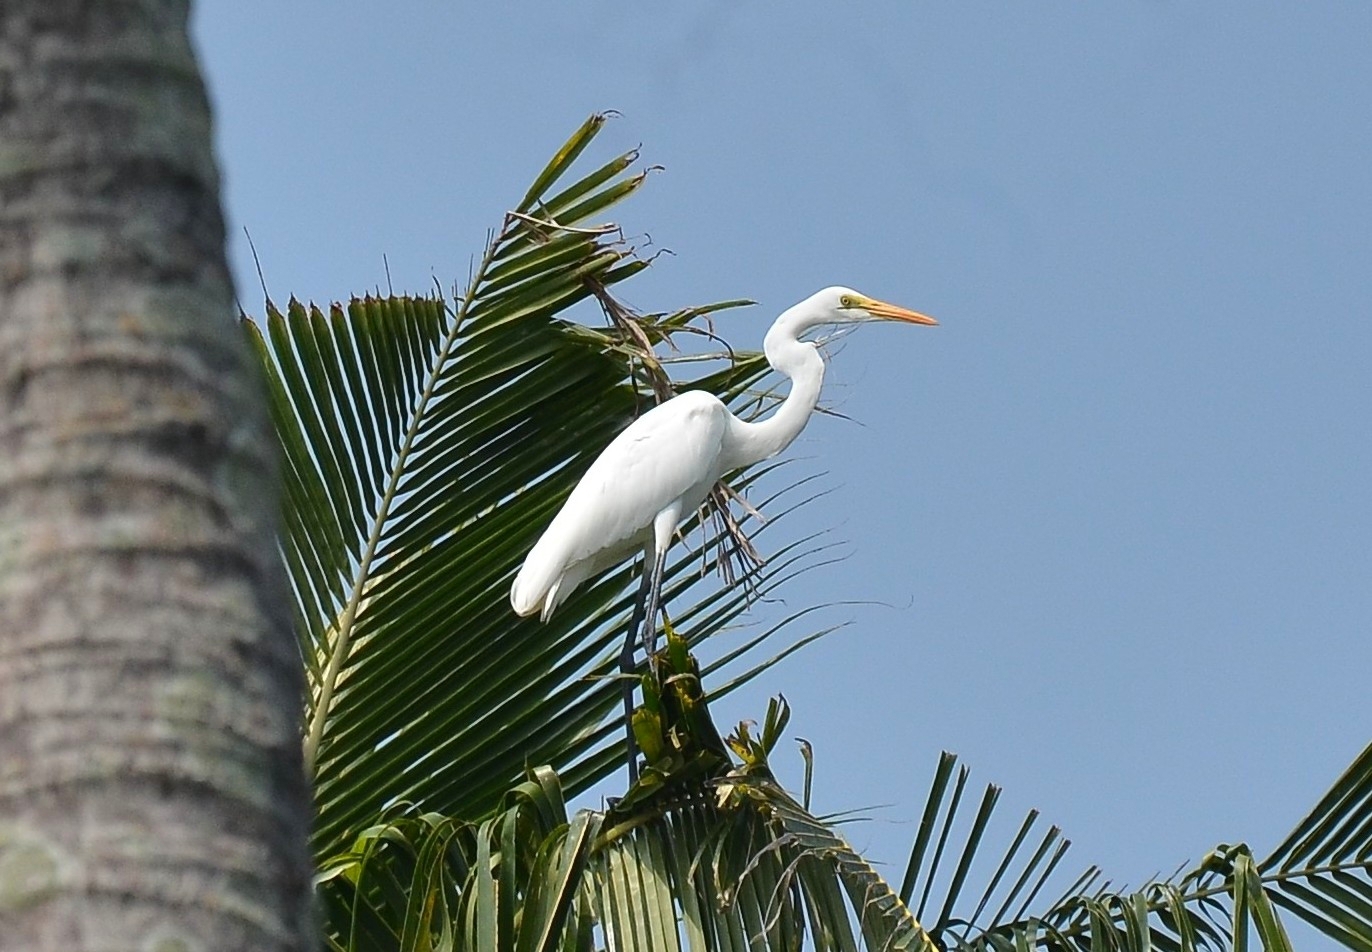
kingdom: Animalia
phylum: Chordata
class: Aves
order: Pelecaniformes
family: Ardeidae
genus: Ardea
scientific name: Ardea alba
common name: Great egret
